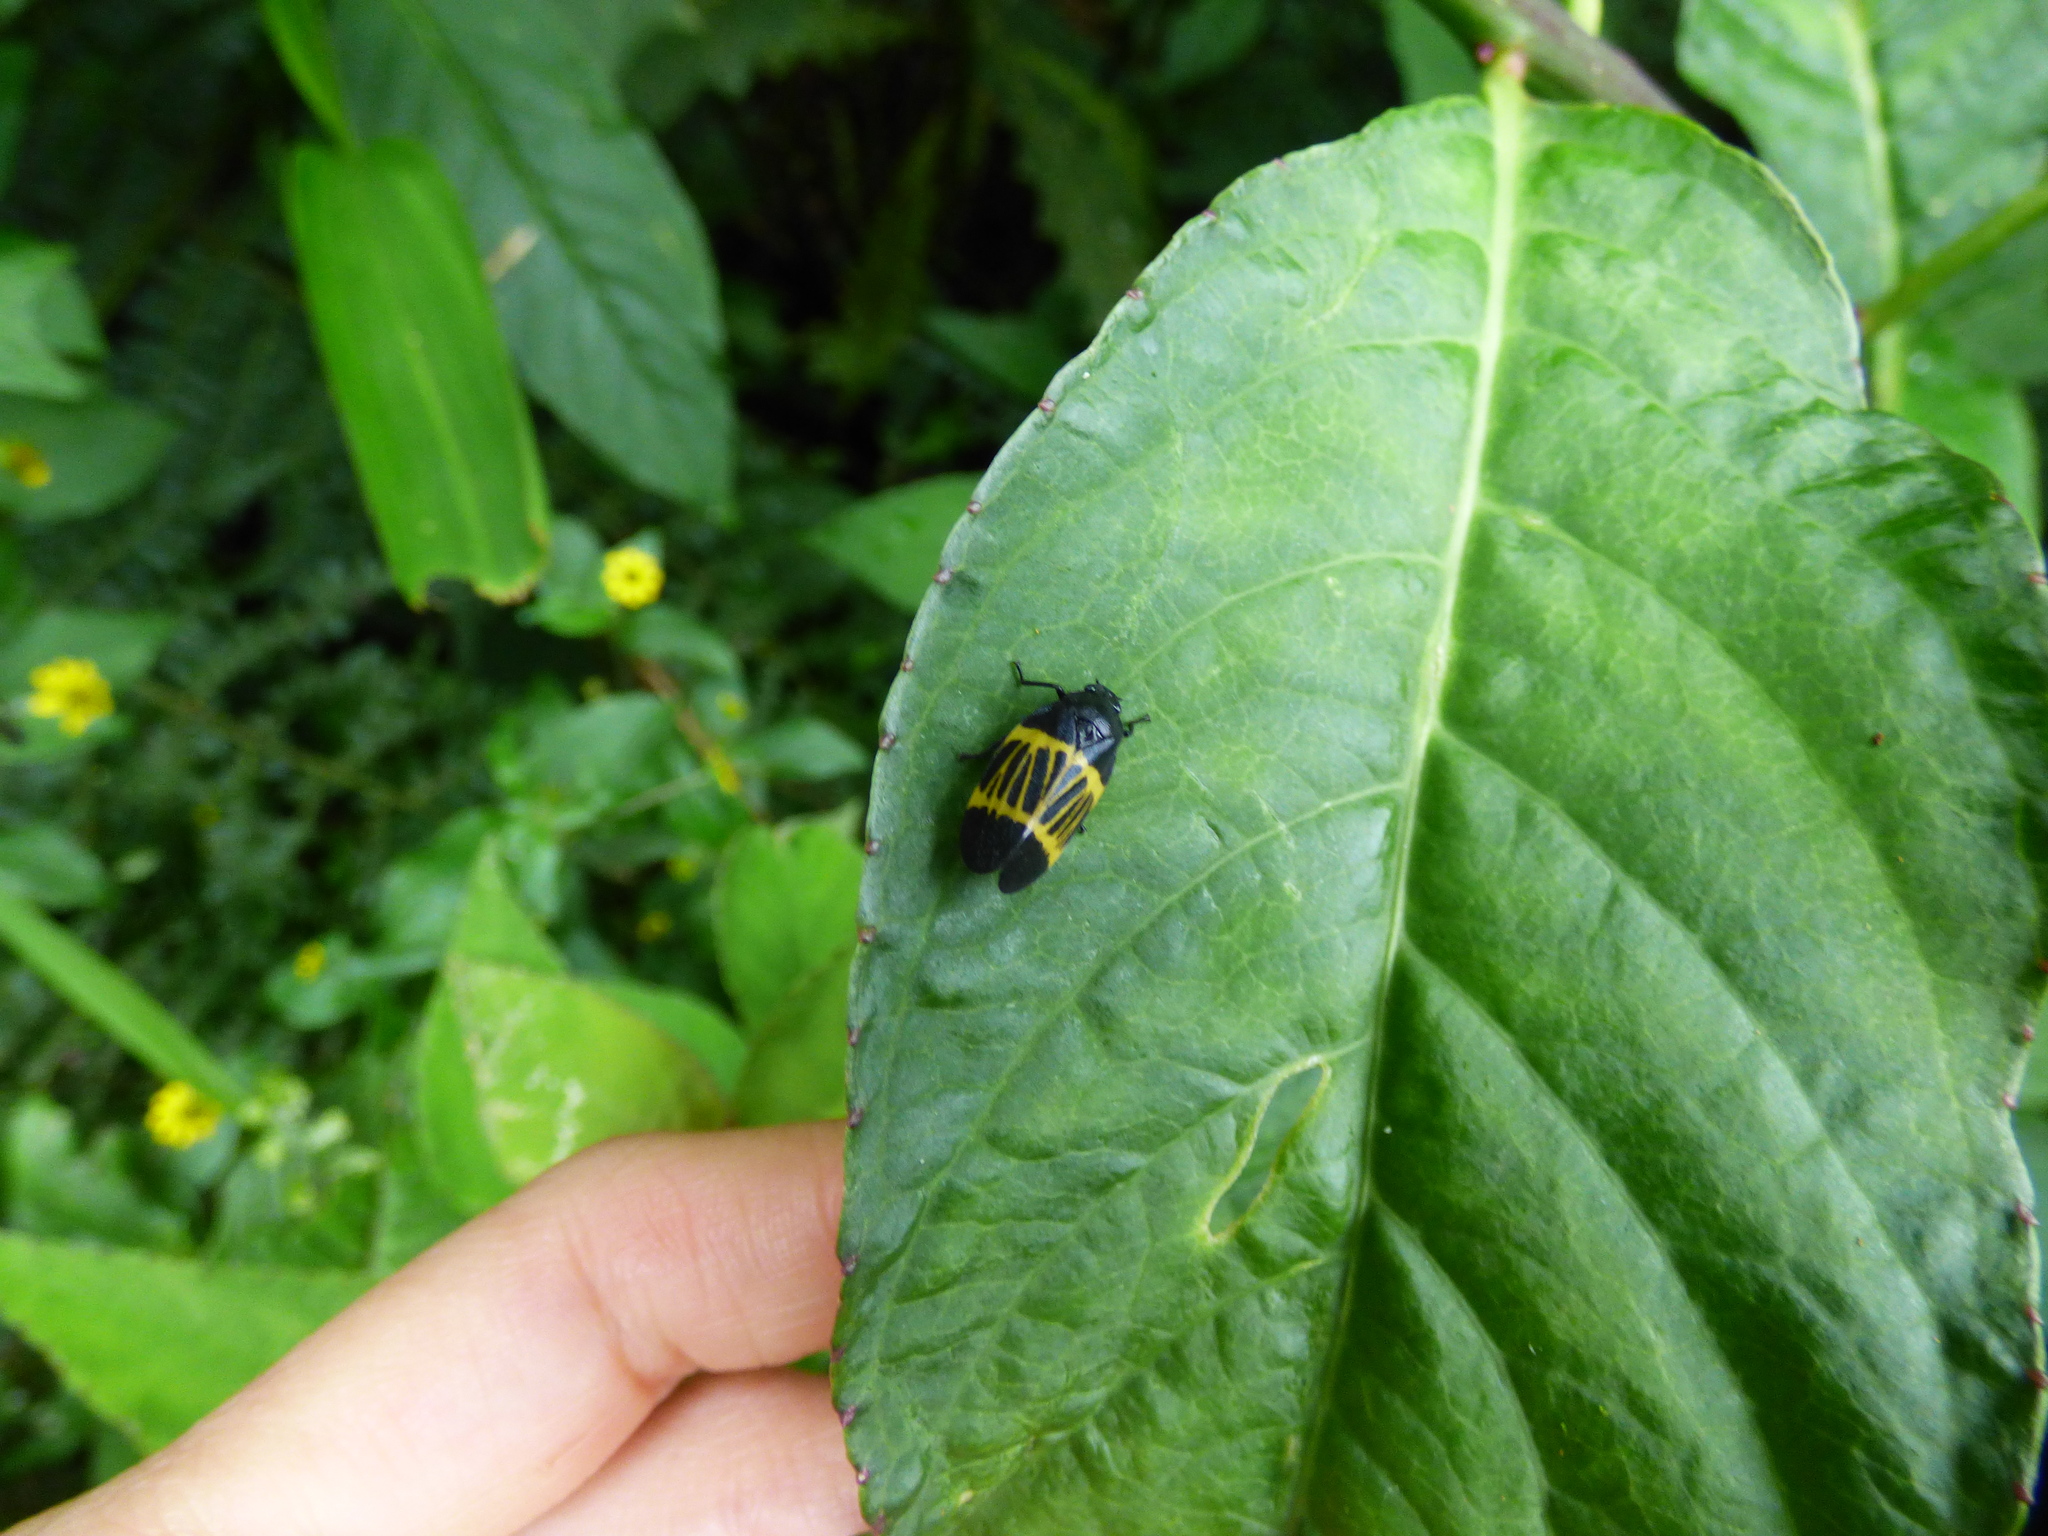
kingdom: Animalia
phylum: Arthropoda
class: Insecta
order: Hemiptera
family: Cercopidae
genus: Sphenorhina
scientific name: Sphenorhina clarivenosa
